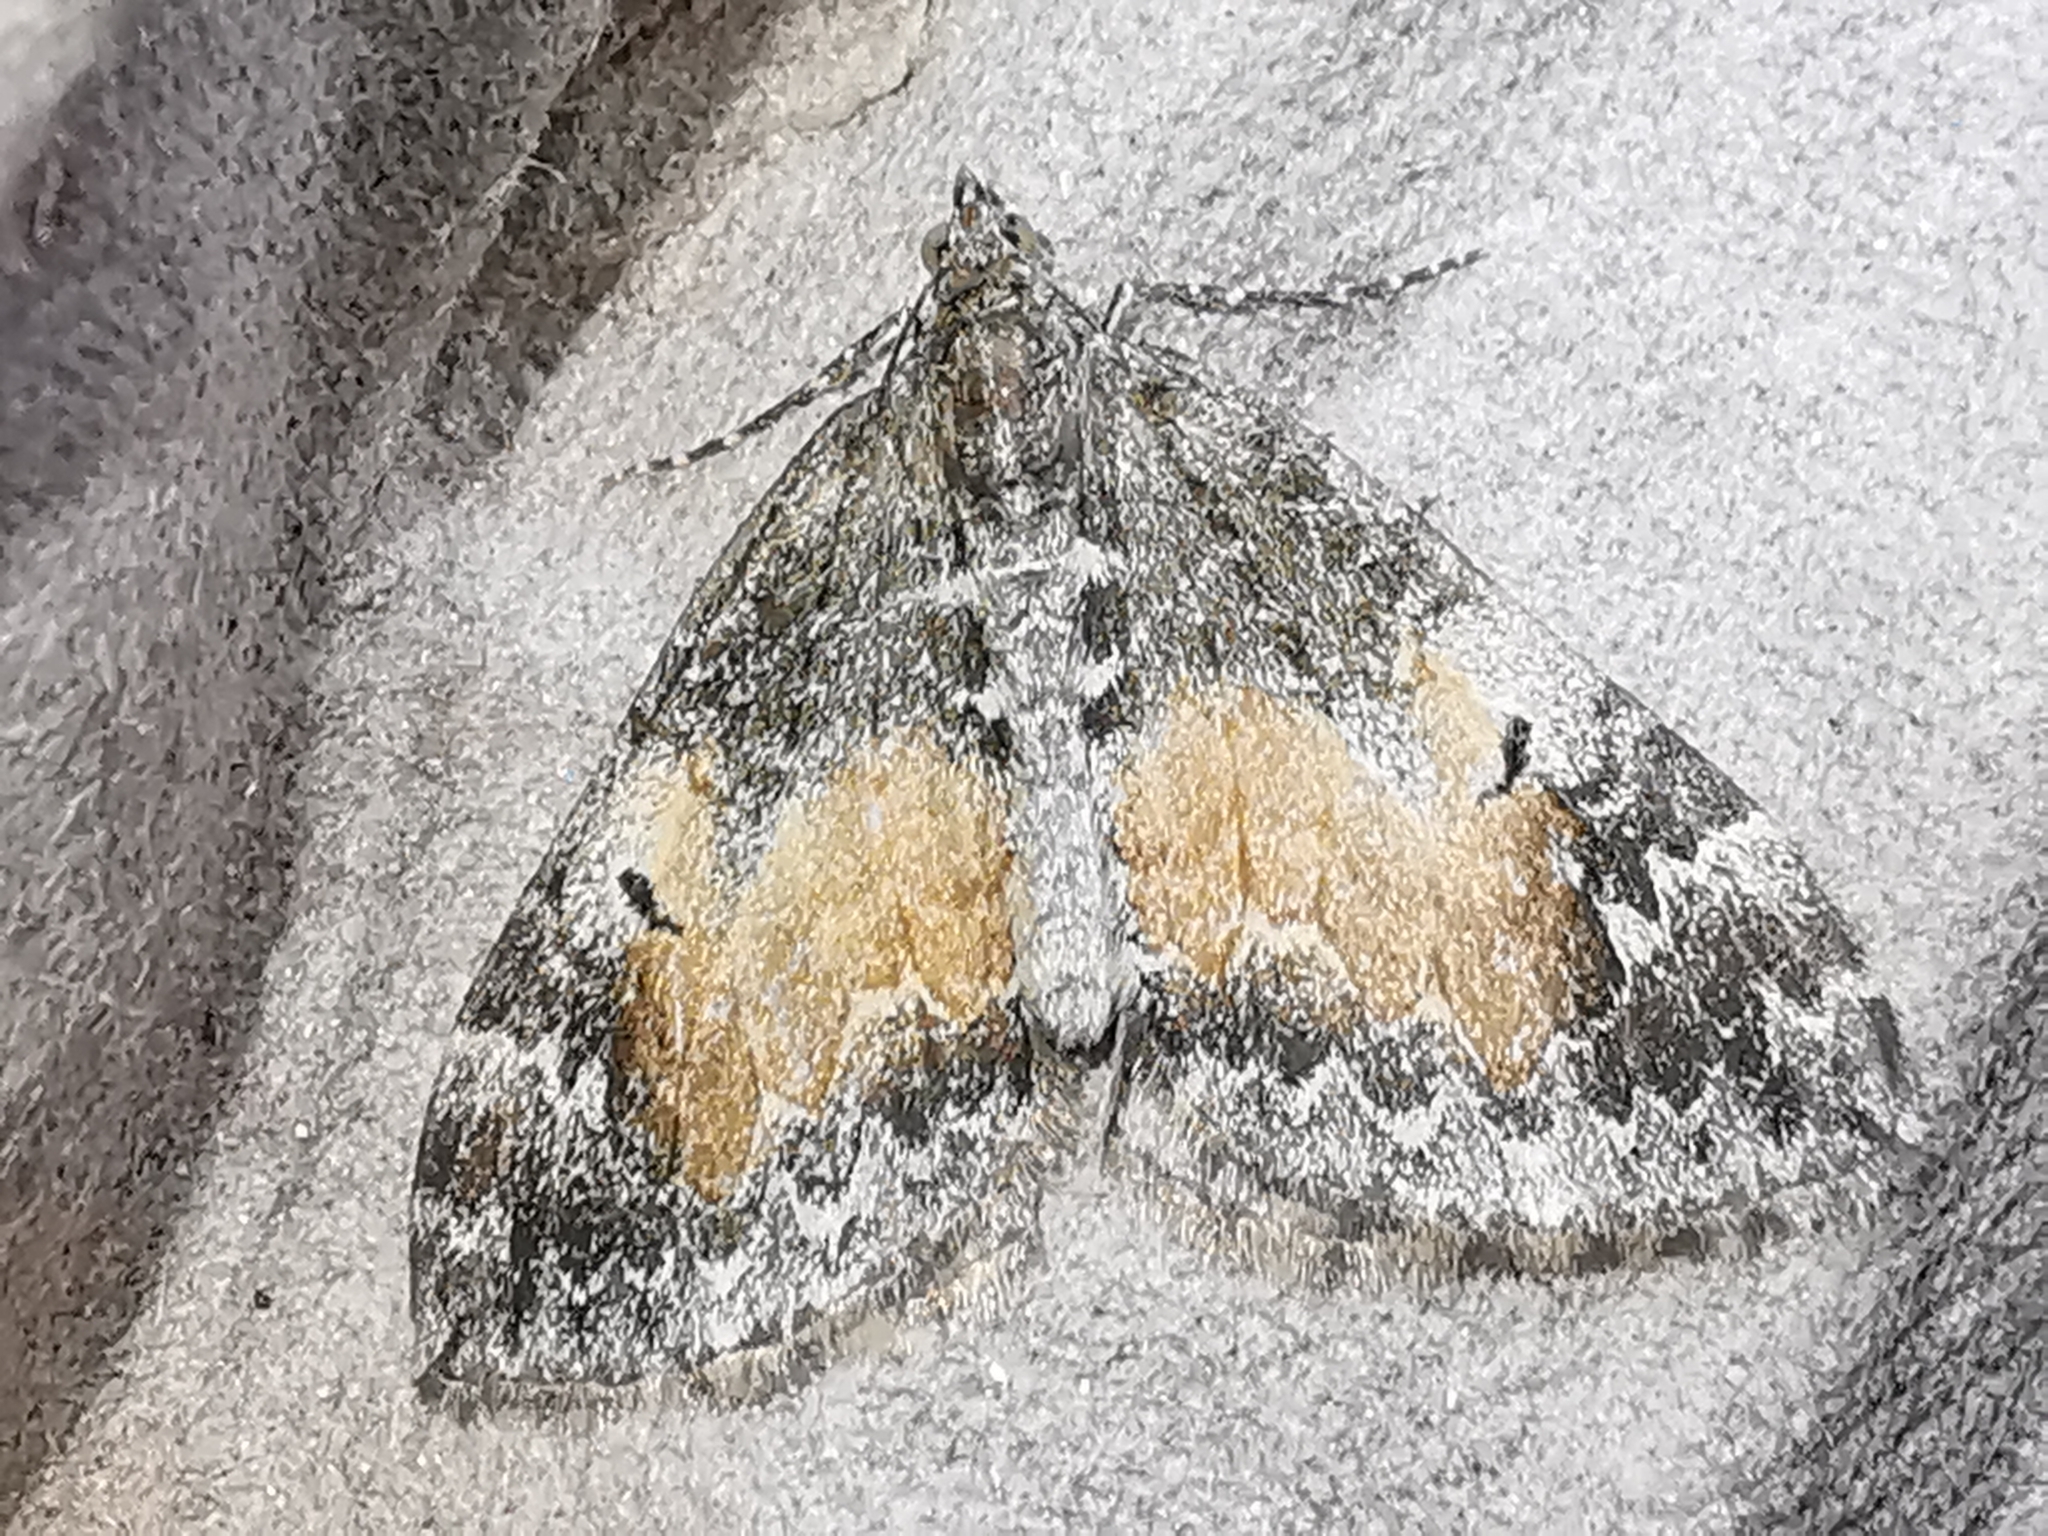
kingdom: Animalia
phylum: Arthropoda
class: Insecta
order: Lepidoptera
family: Geometridae
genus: Dysstroma
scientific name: Dysstroma truncata
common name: Common marbled carpet
